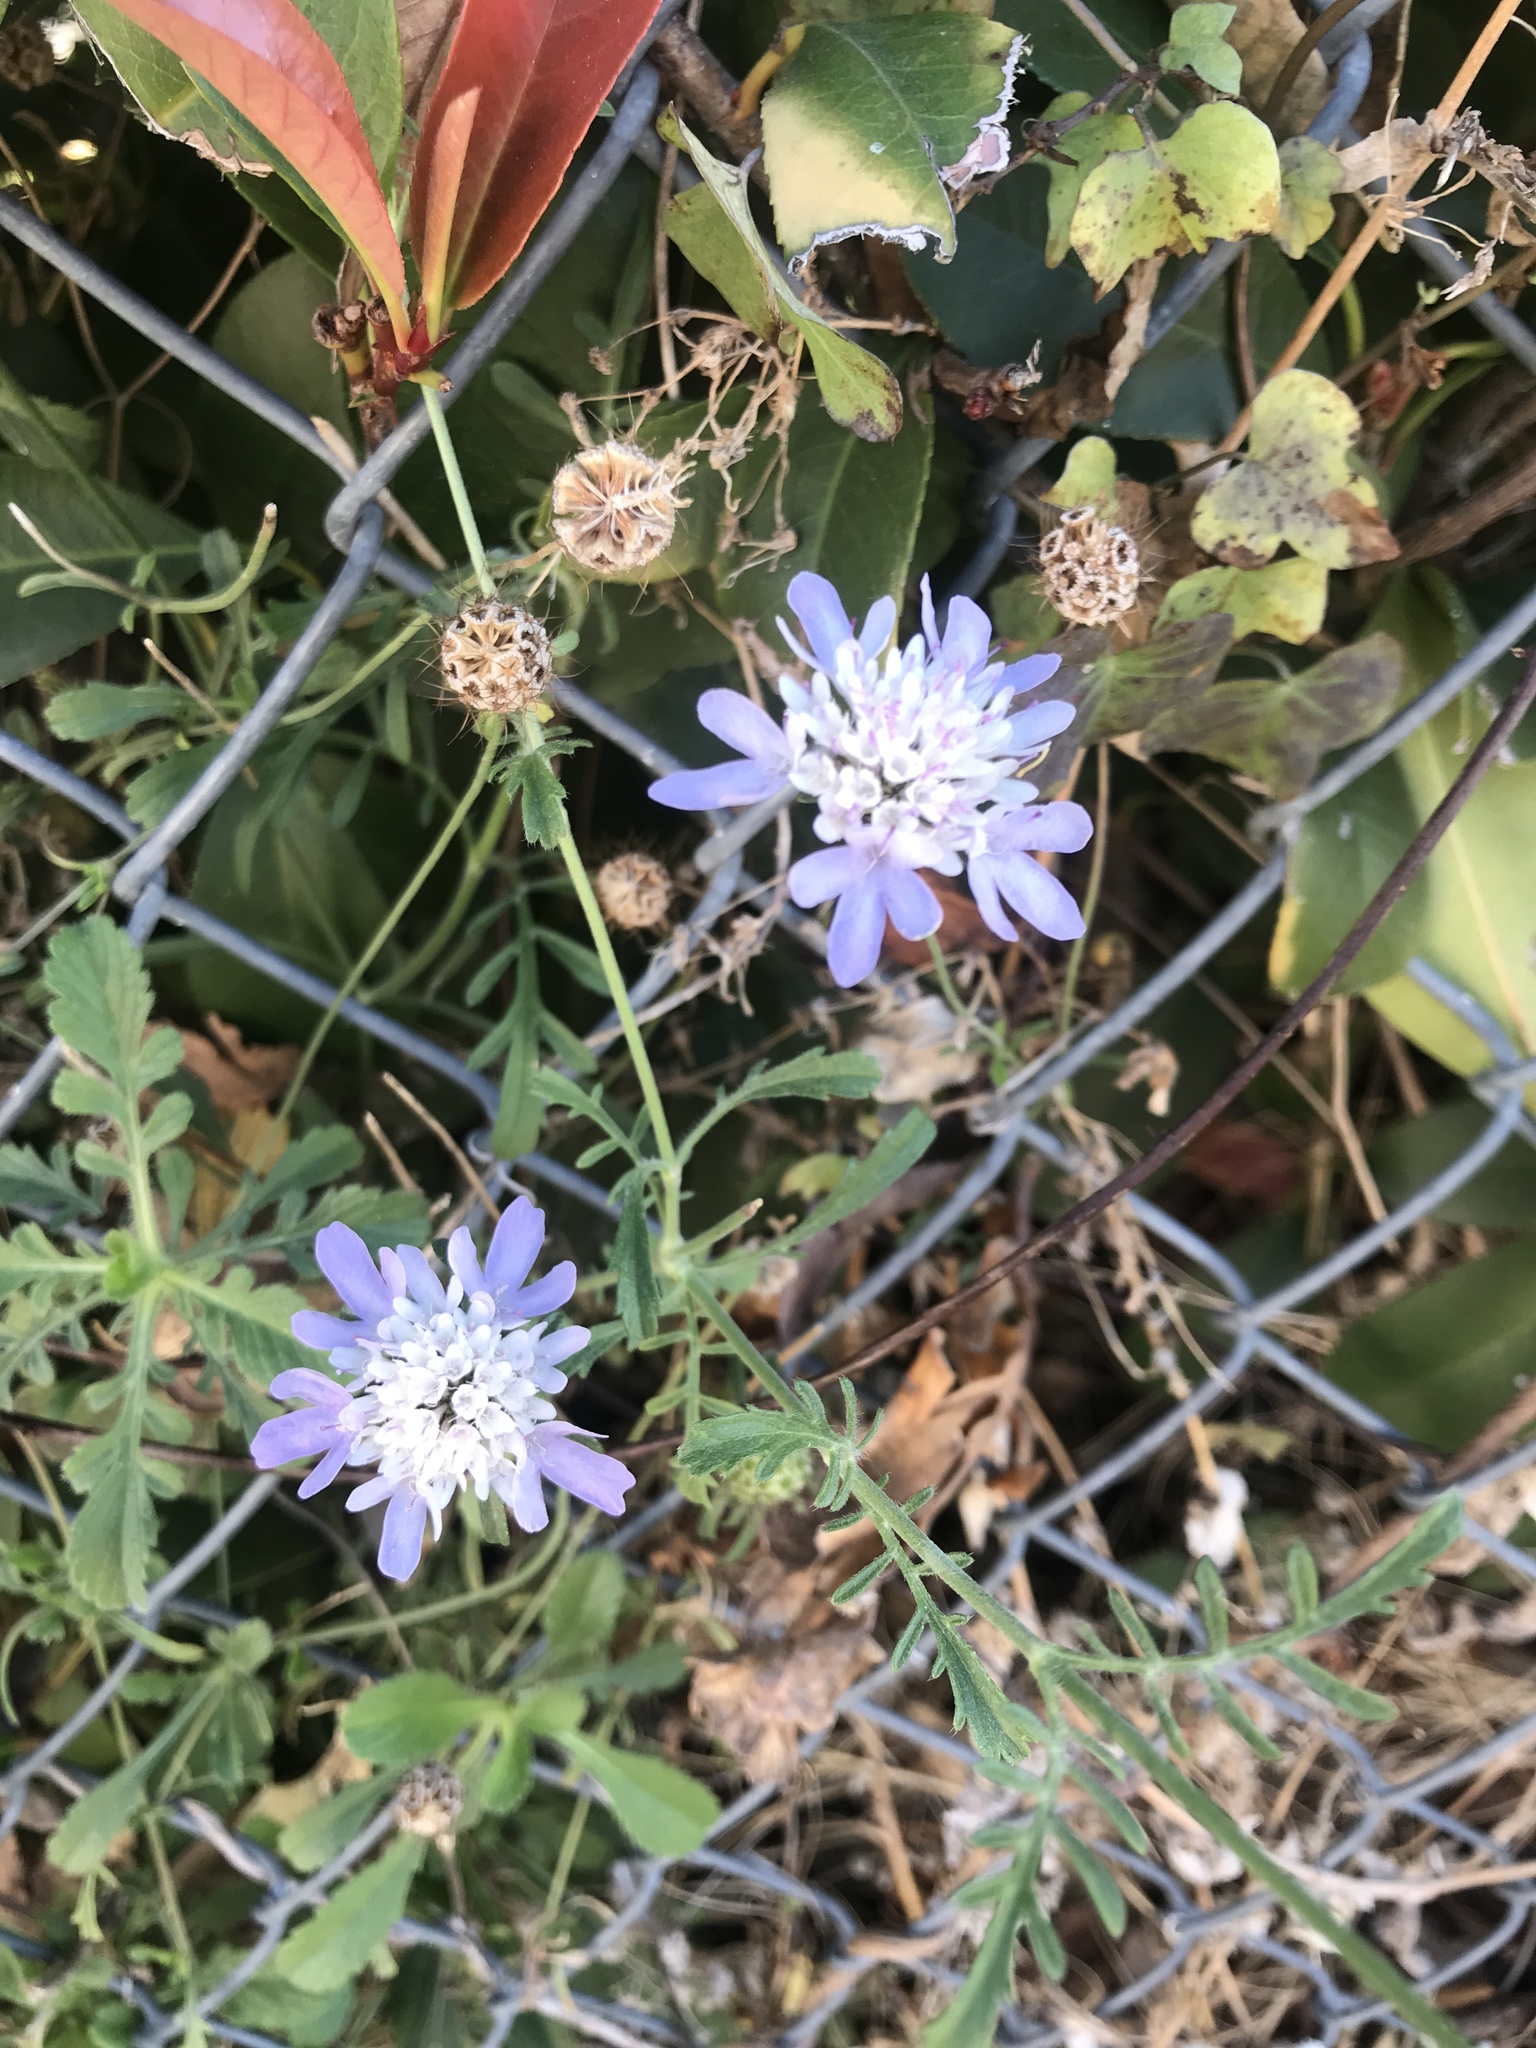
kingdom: Plantae
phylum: Tracheophyta
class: Magnoliopsida
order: Dipsacales
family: Caprifoliaceae
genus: Sixalix
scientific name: Sixalix atropurpurea
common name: Sweet scabious
